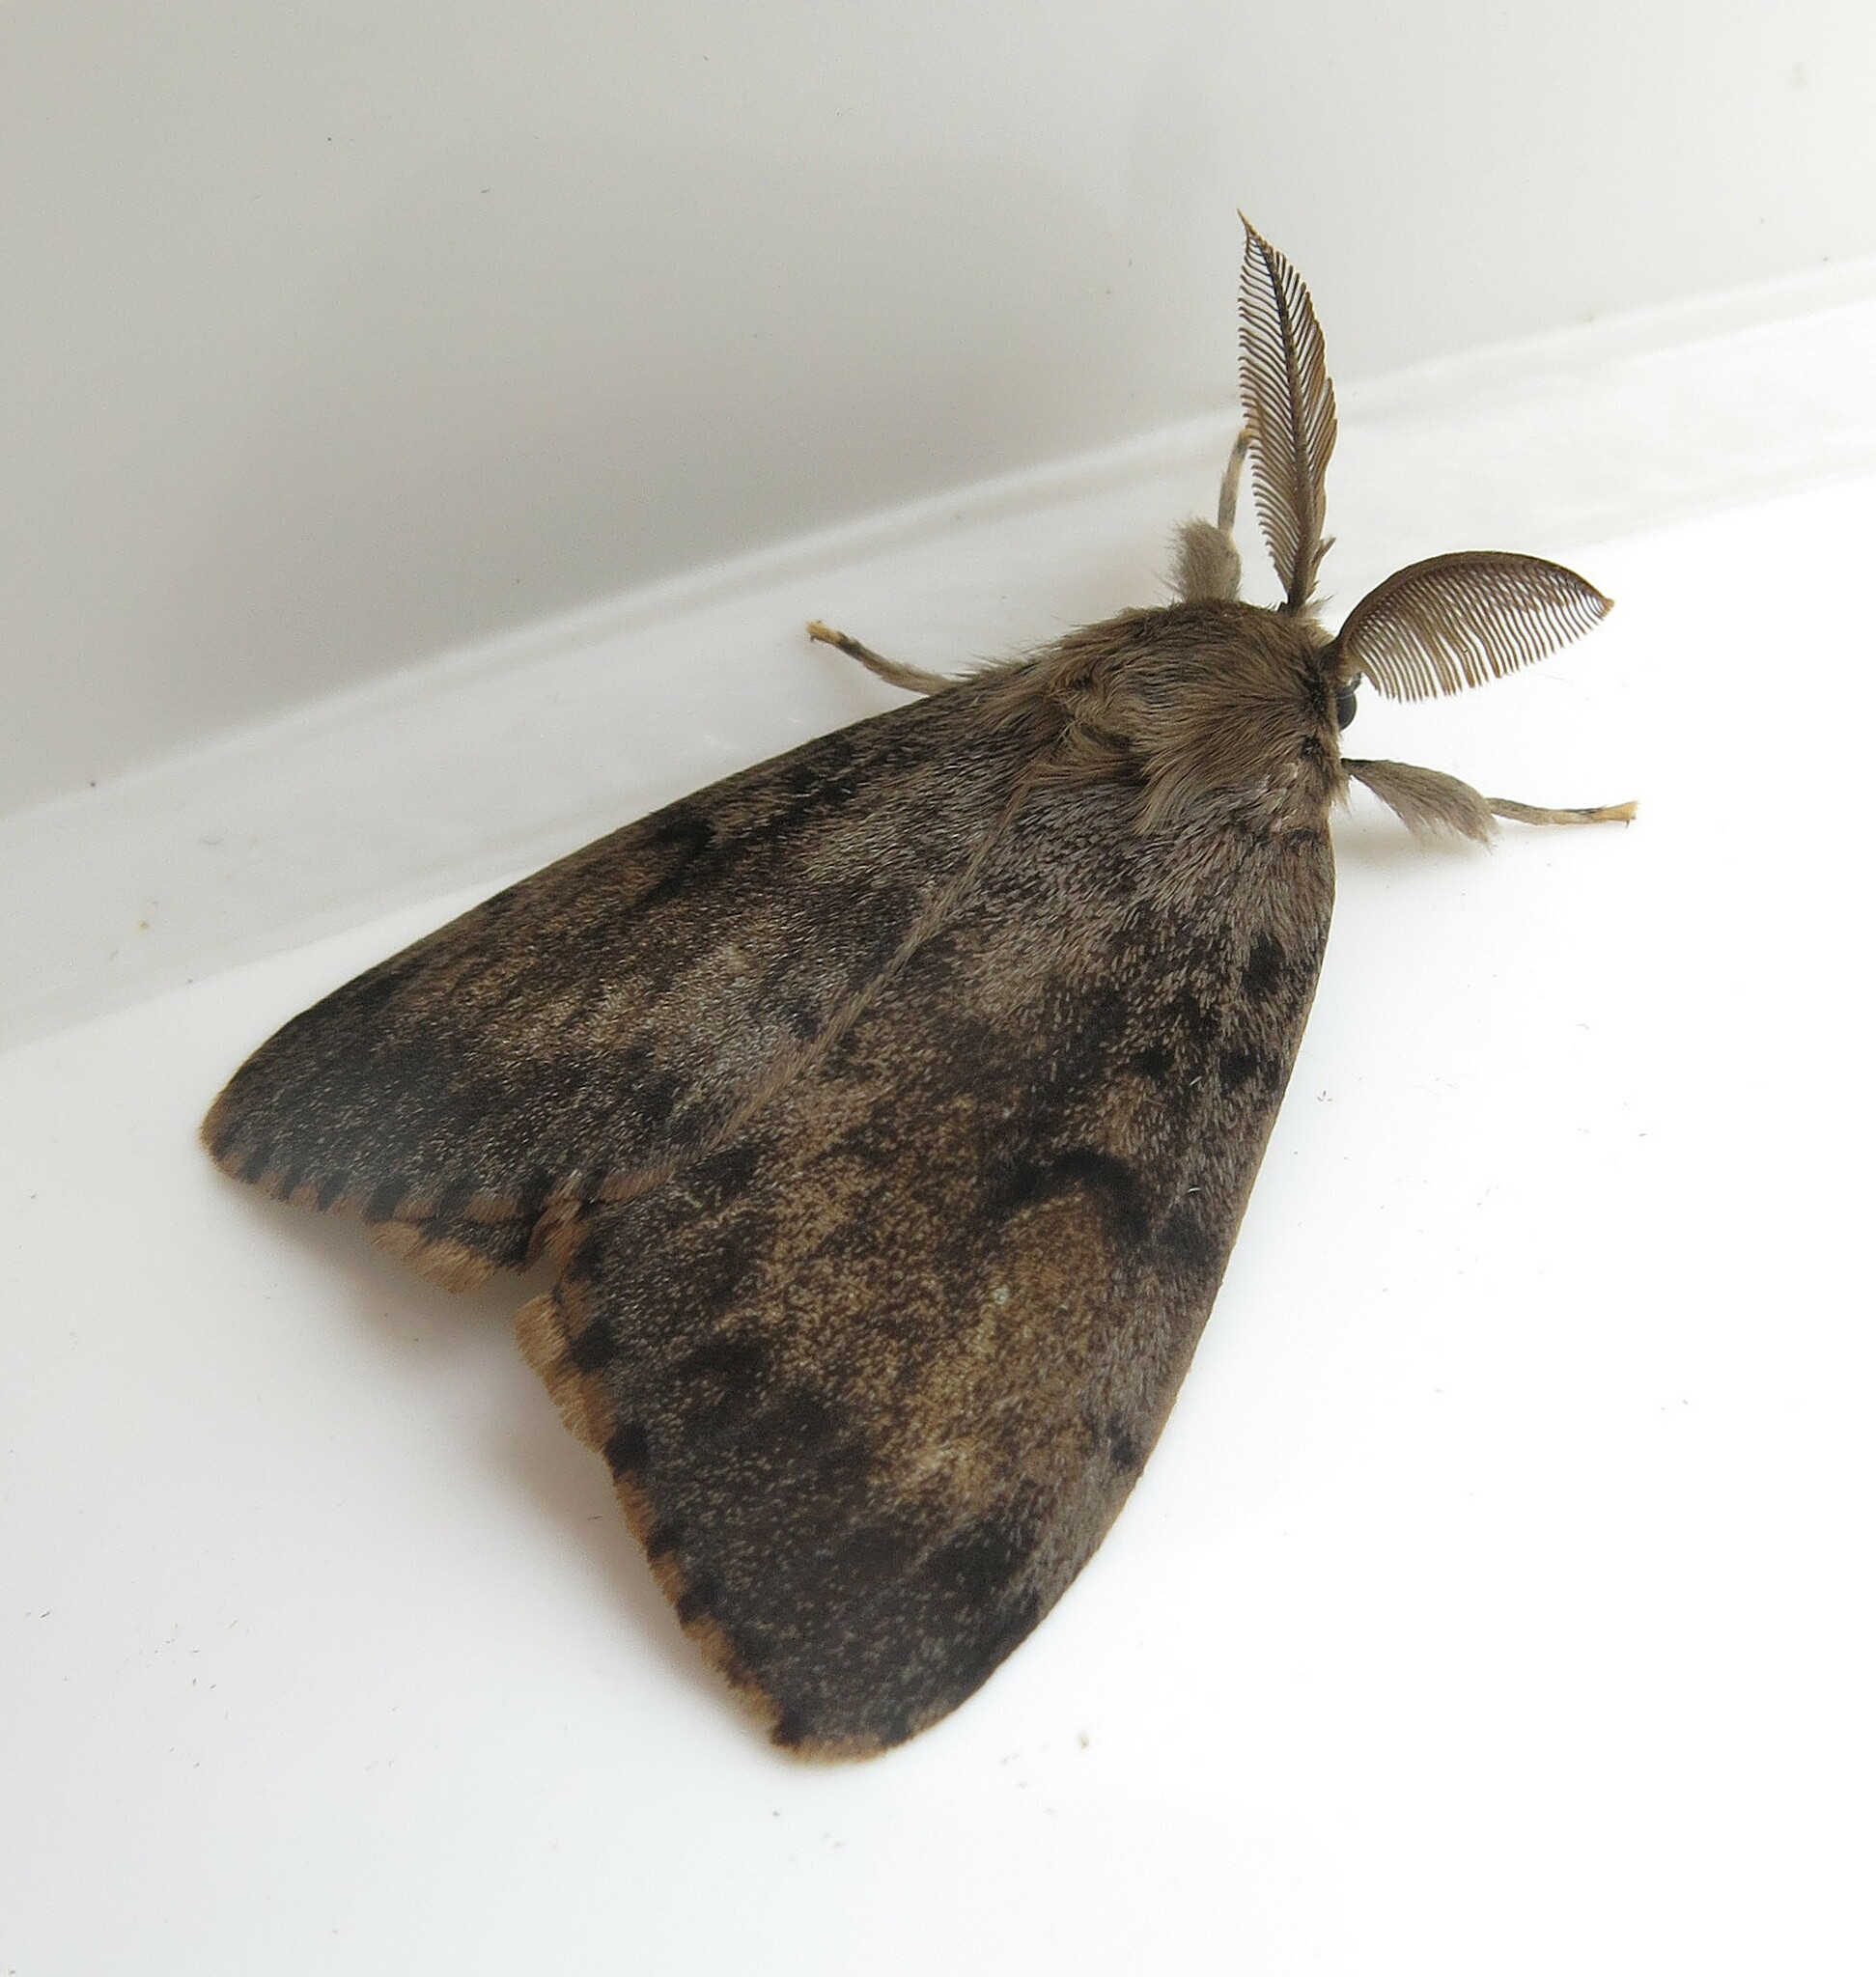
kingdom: Animalia
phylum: Arthropoda
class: Insecta
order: Lepidoptera
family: Erebidae
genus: Lymantria
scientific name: Lymantria dispar
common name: Gypsy moth
